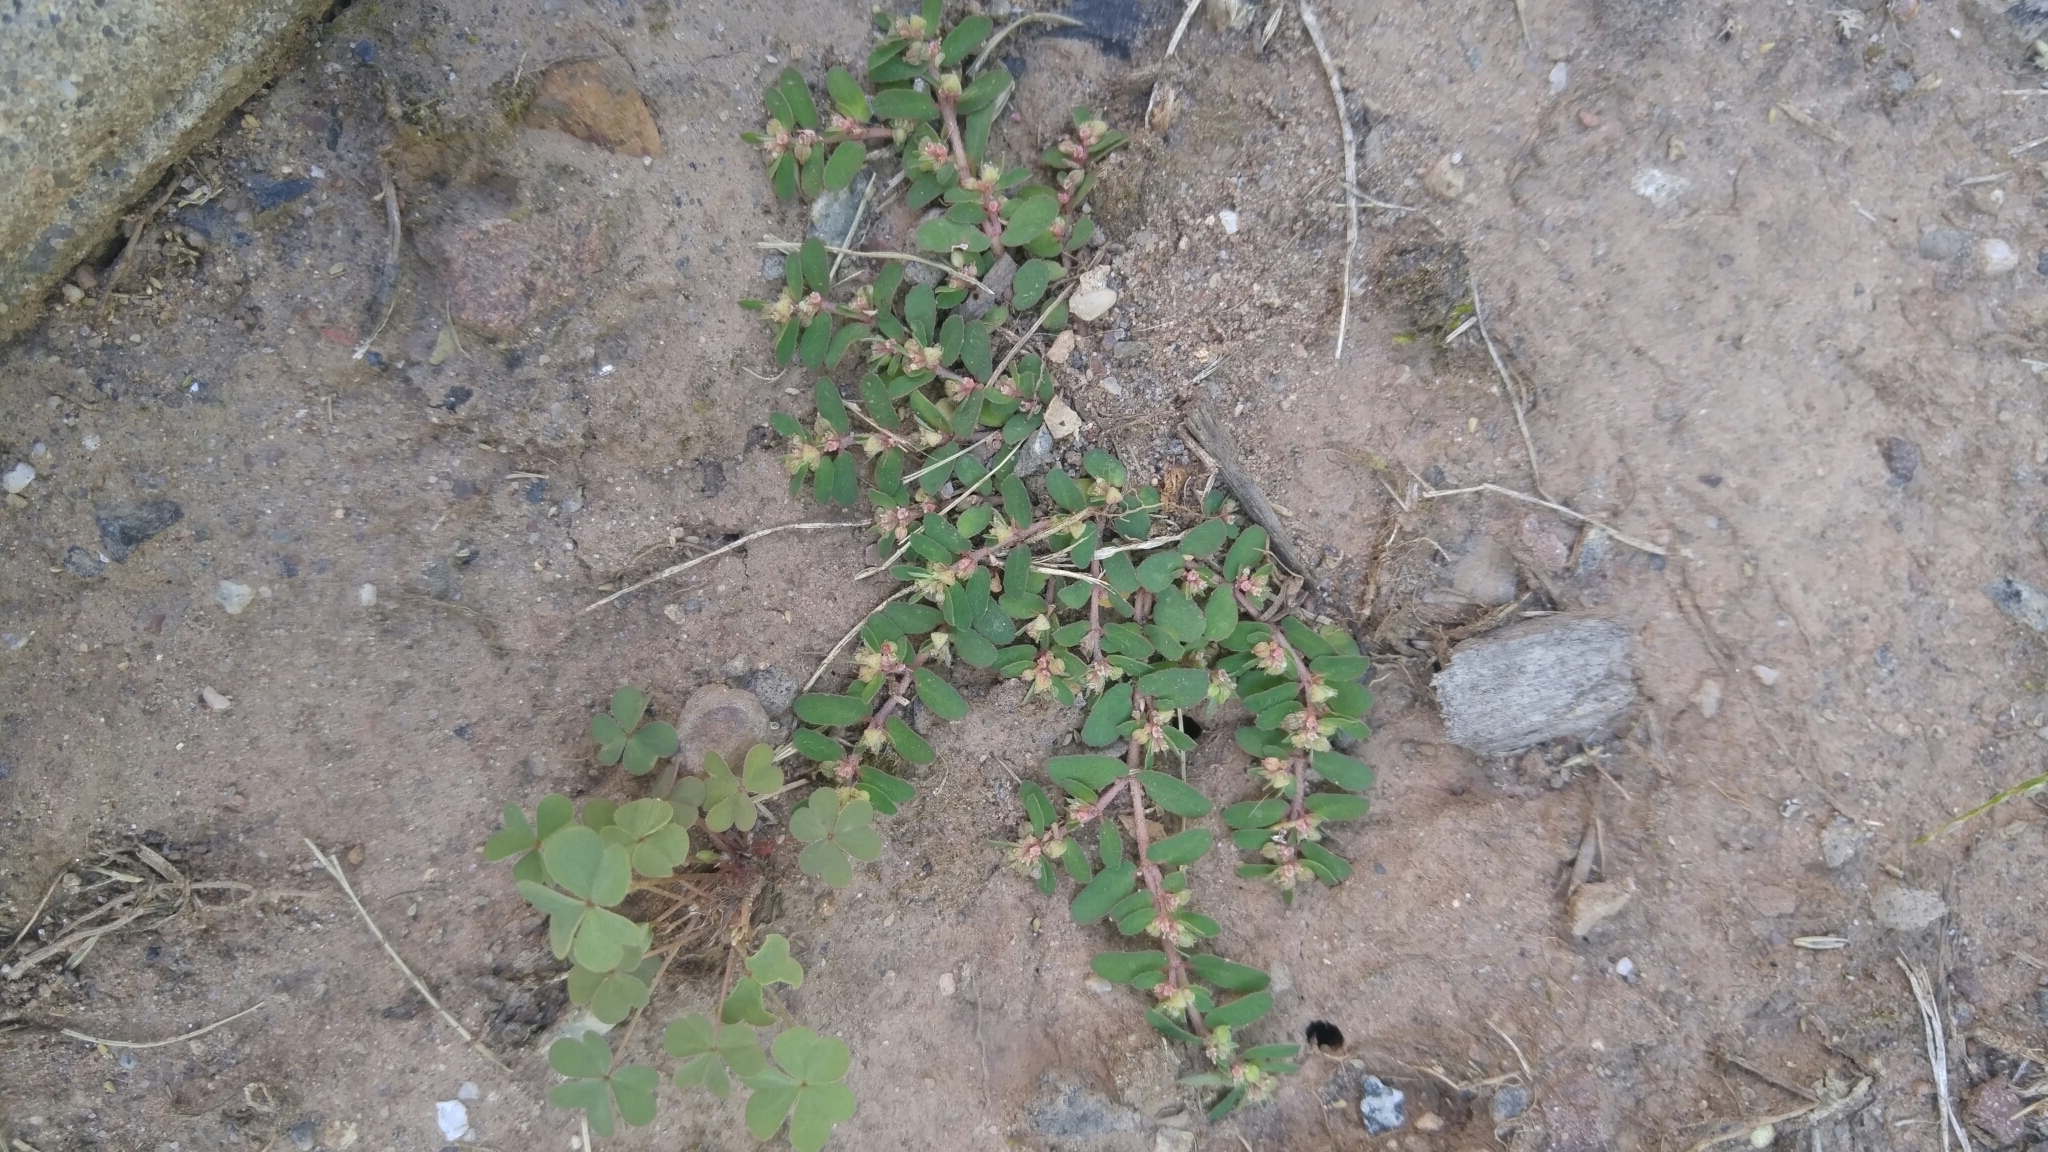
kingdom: Plantae
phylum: Tracheophyta
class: Magnoliopsida
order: Malpighiales
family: Euphorbiaceae
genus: Euphorbia
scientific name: Euphorbia maculata
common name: Spotted spurge
